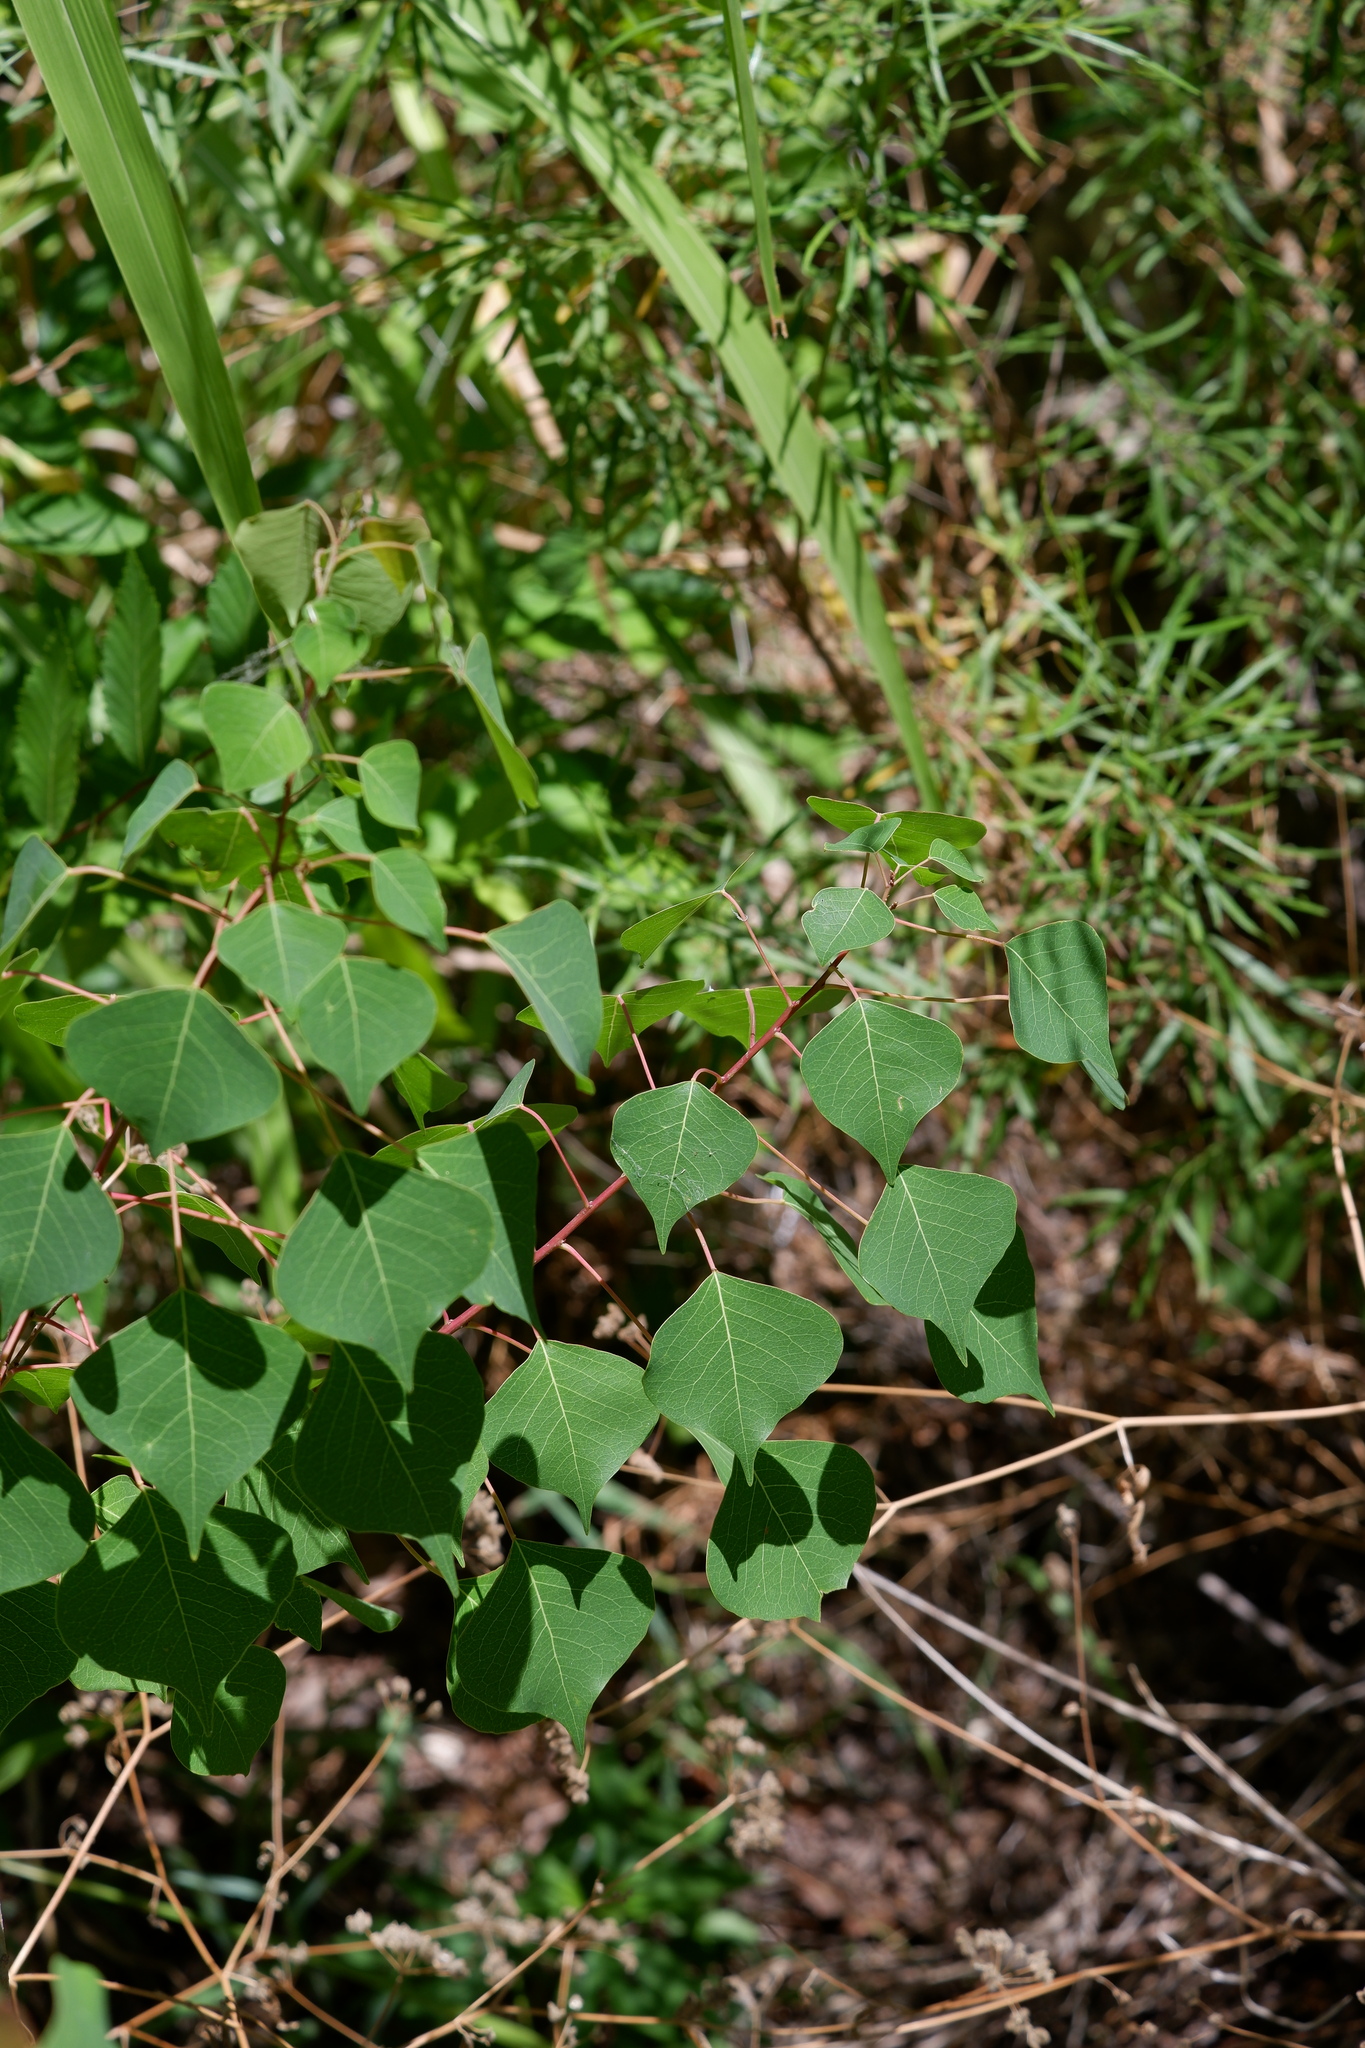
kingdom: Plantae
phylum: Tracheophyta
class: Magnoliopsida
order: Malpighiales
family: Euphorbiaceae
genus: Triadica
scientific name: Triadica sebifera
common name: Chinese tallow
